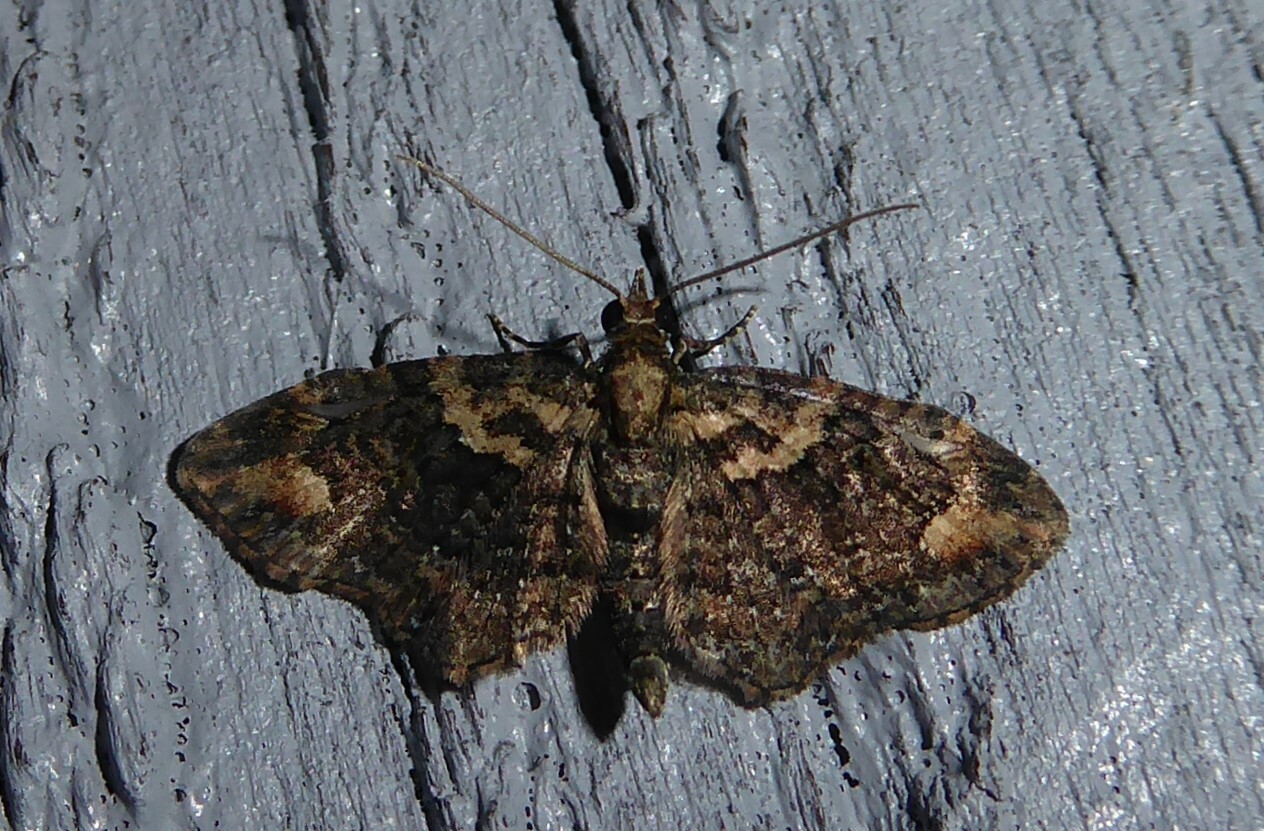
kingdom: Animalia
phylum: Arthropoda
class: Insecta
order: Lepidoptera
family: Geometridae
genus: Pasiphilodes
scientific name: Pasiphilodes testulata
